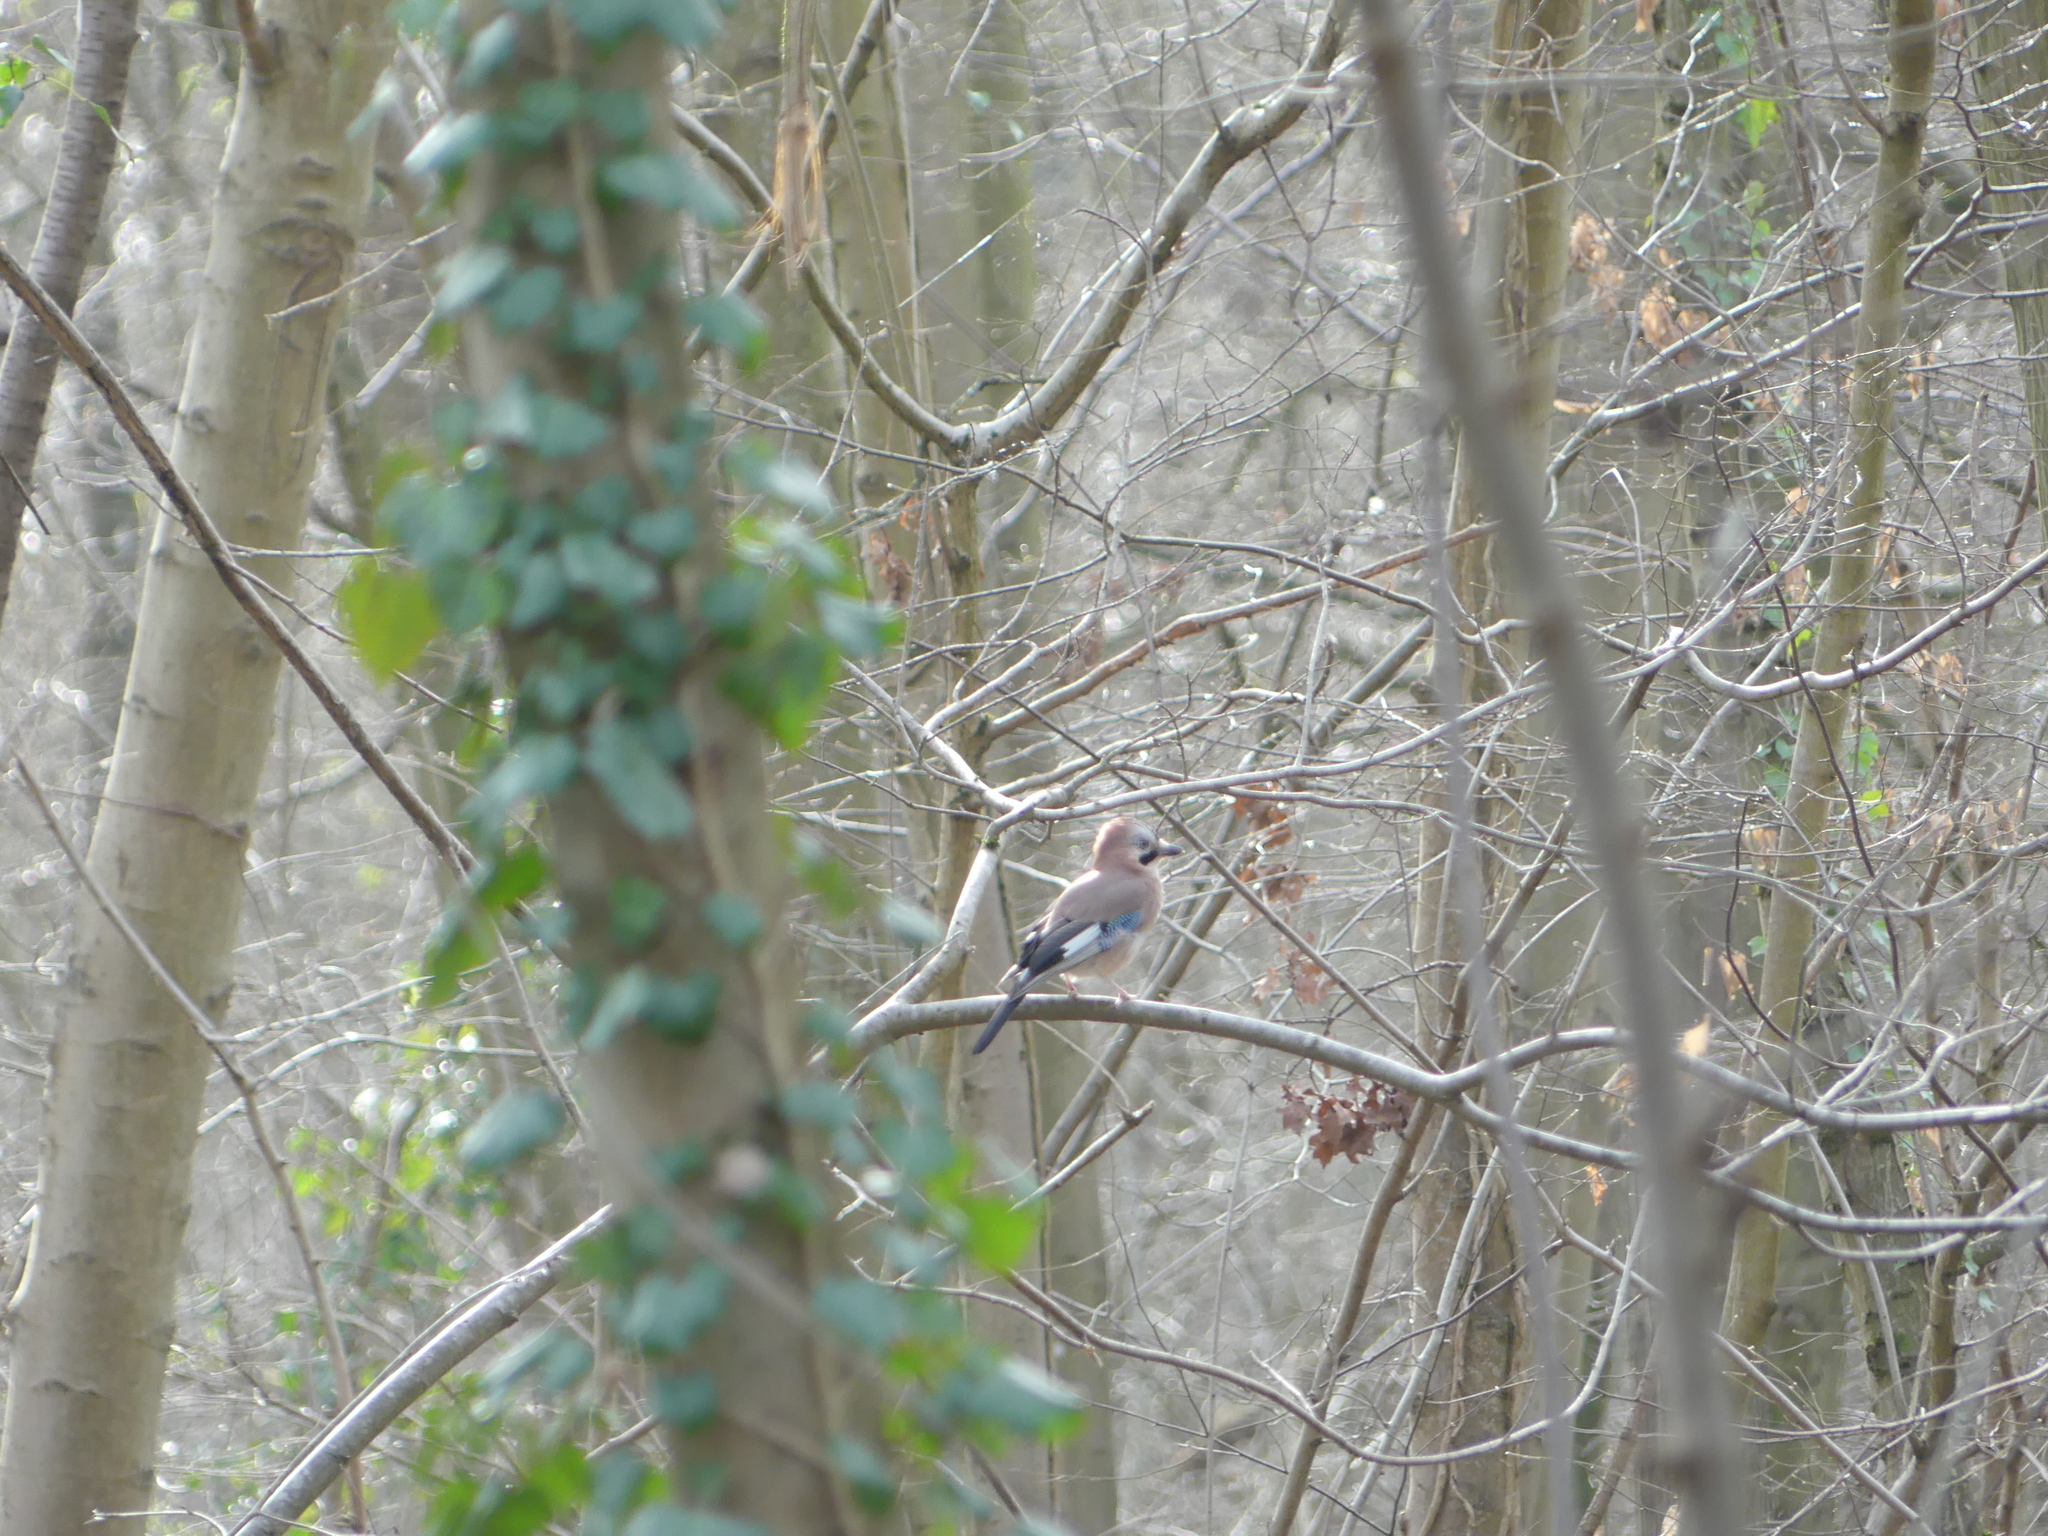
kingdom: Animalia
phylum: Chordata
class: Aves
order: Passeriformes
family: Corvidae
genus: Garrulus
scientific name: Garrulus glandarius
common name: Eurasian jay
